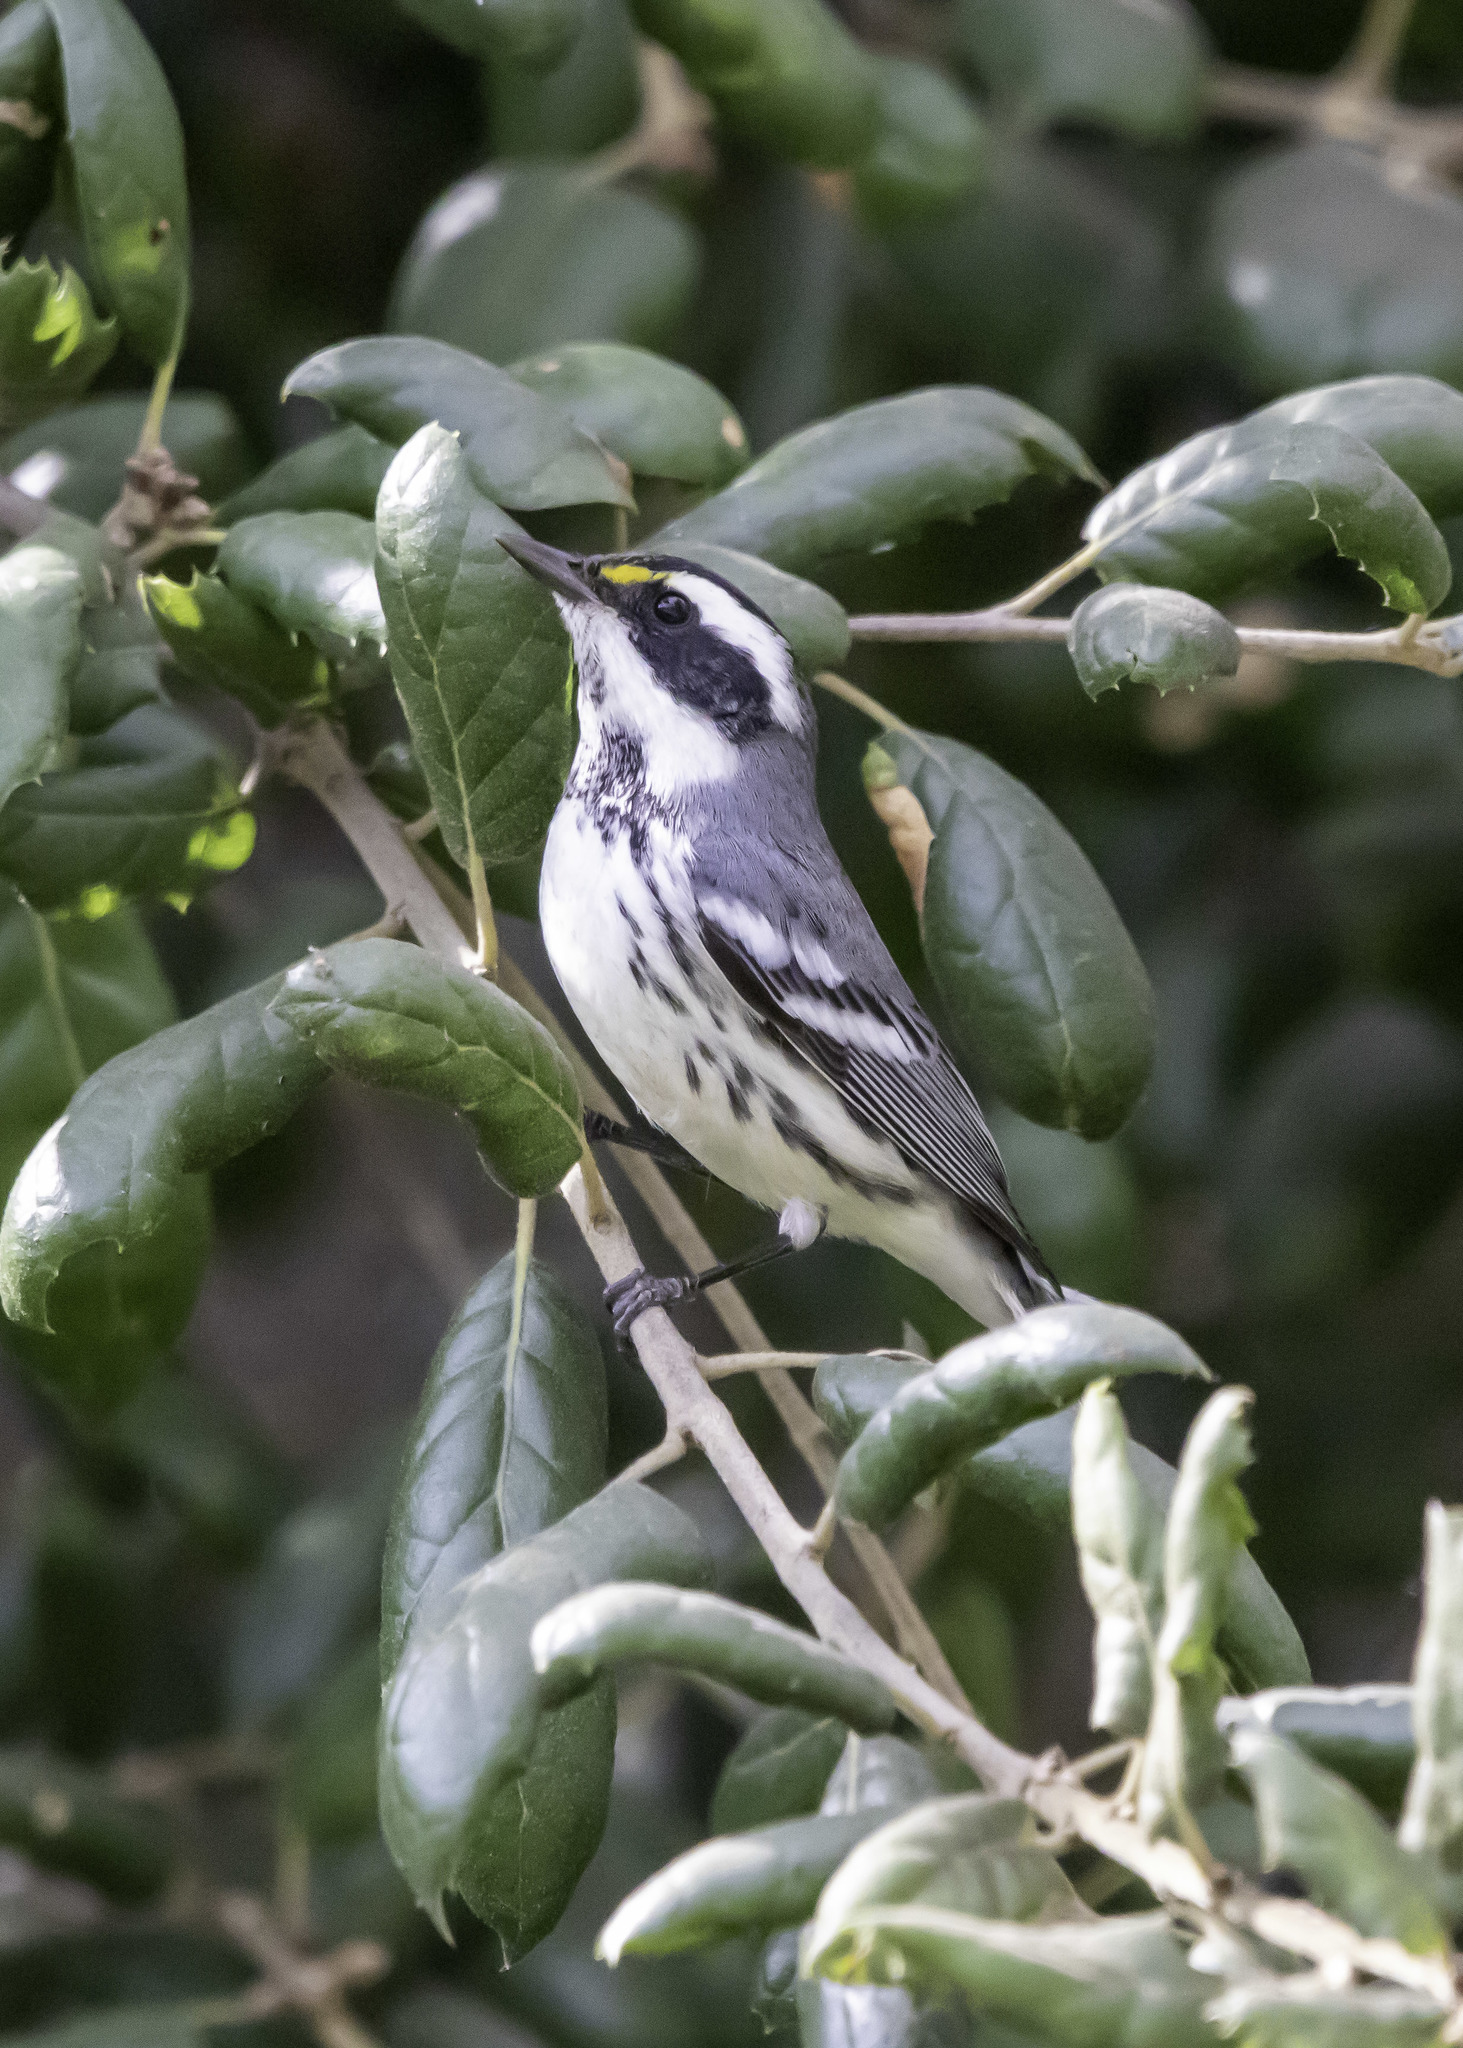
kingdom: Animalia
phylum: Chordata
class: Aves
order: Passeriformes
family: Parulidae
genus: Setophaga
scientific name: Setophaga nigrescens
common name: Black-throated gray warbler
